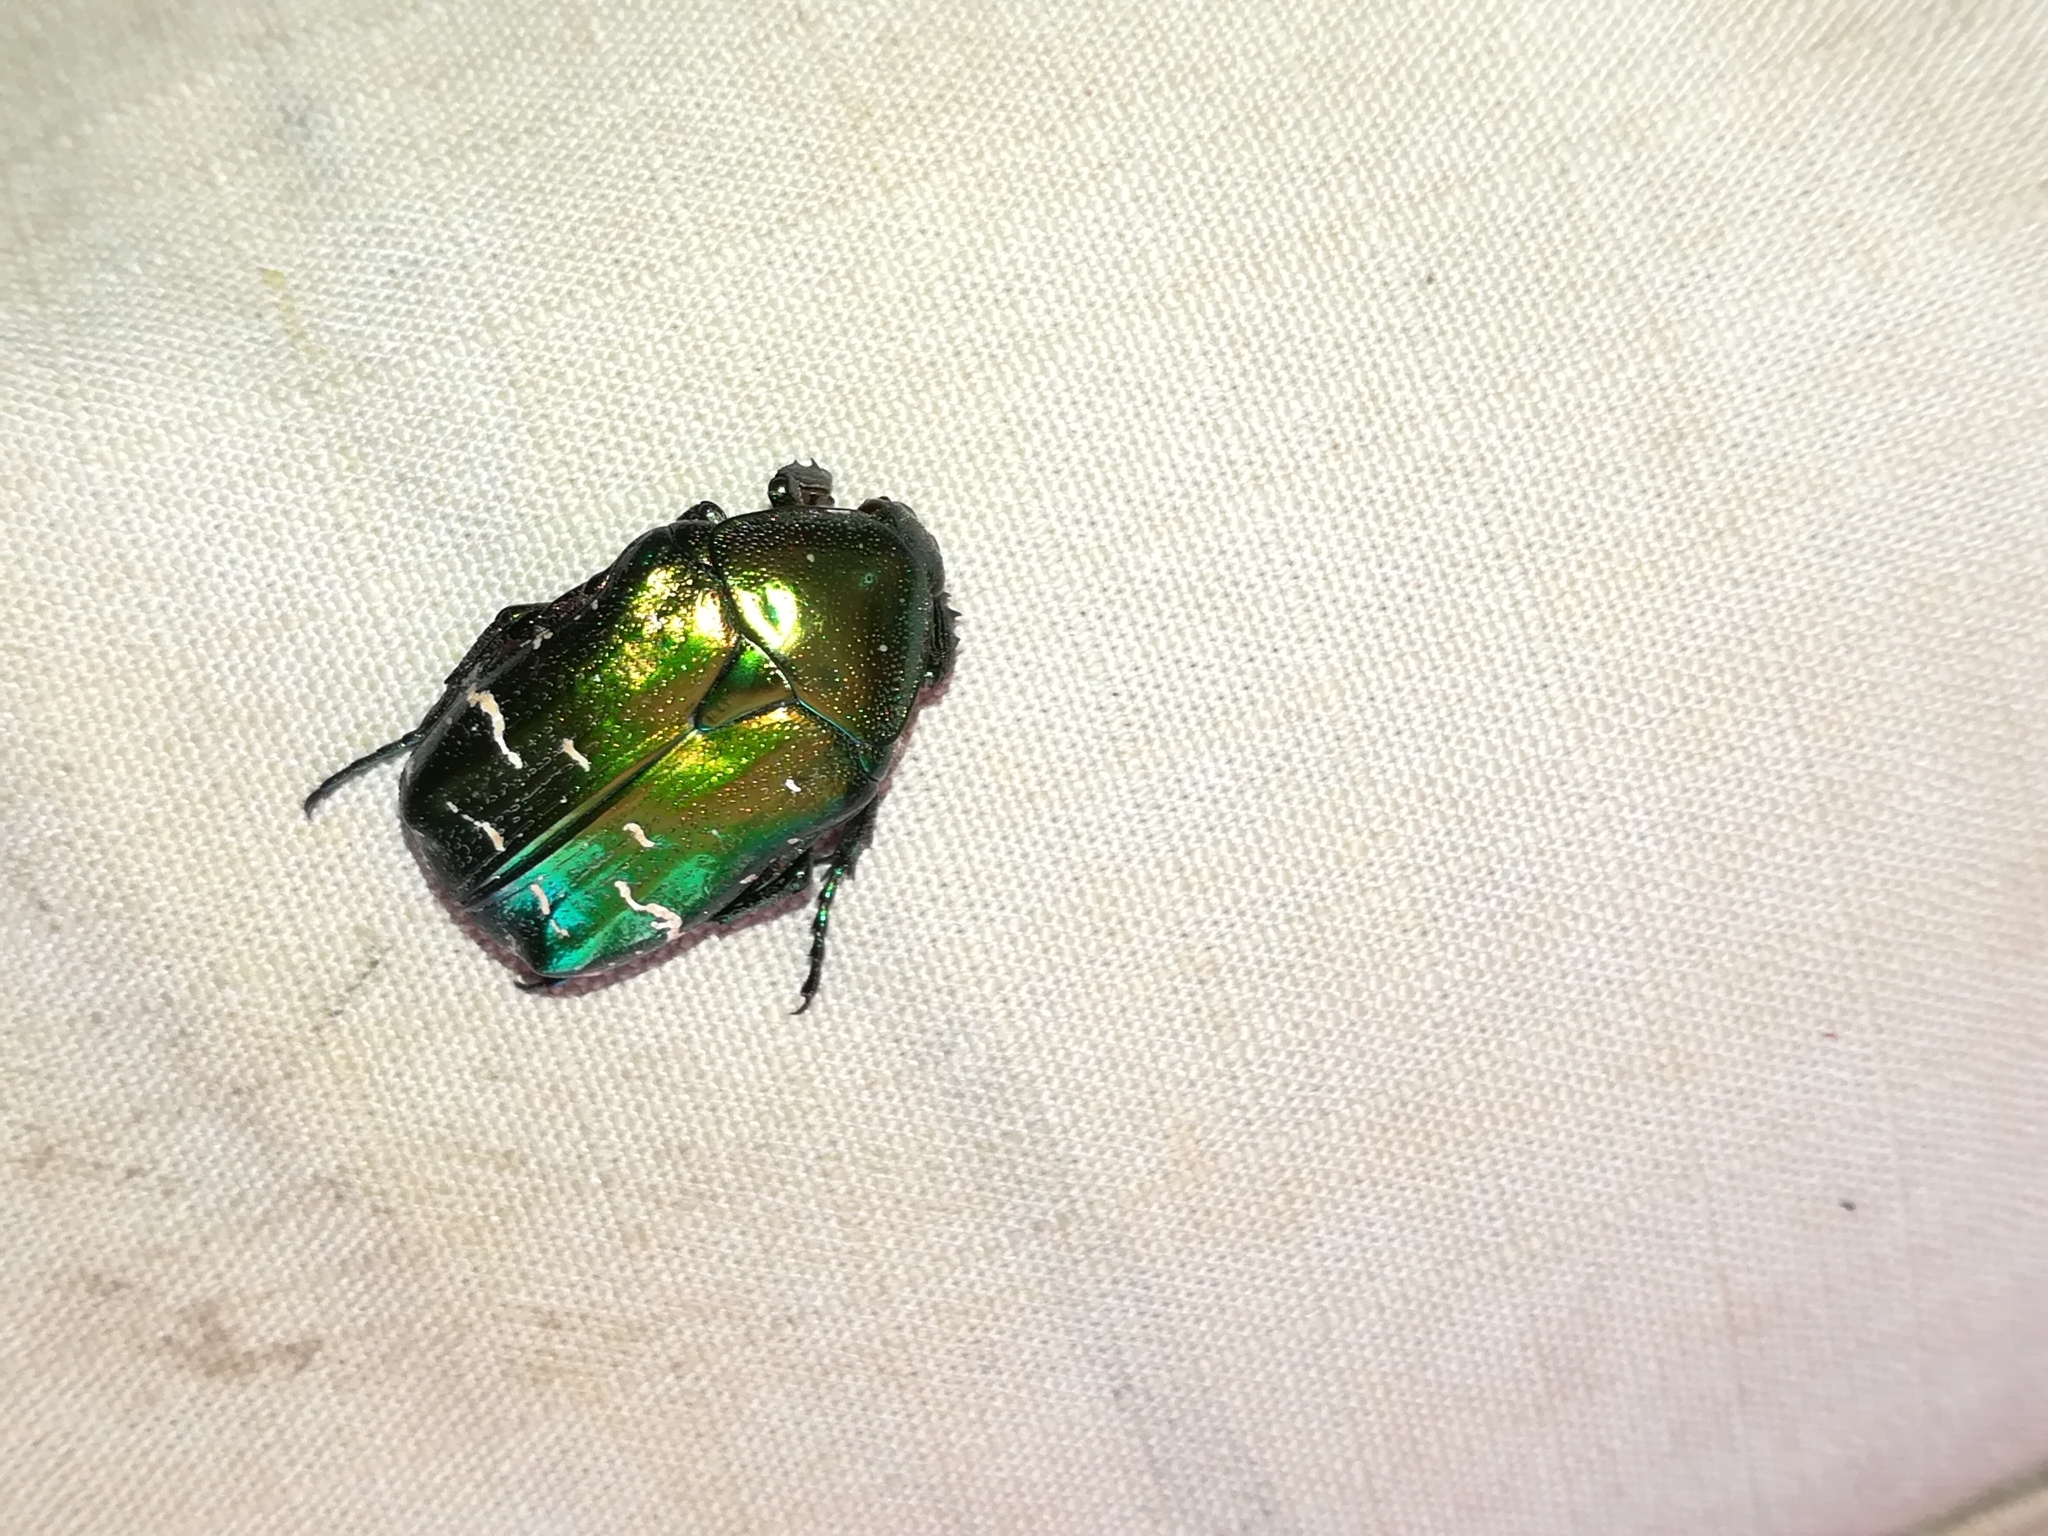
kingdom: Animalia
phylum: Arthropoda
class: Insecta
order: Coleoptera
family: Scarabaeidae
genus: Cetonia
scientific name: Cetonia aurata
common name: Rose chafer
